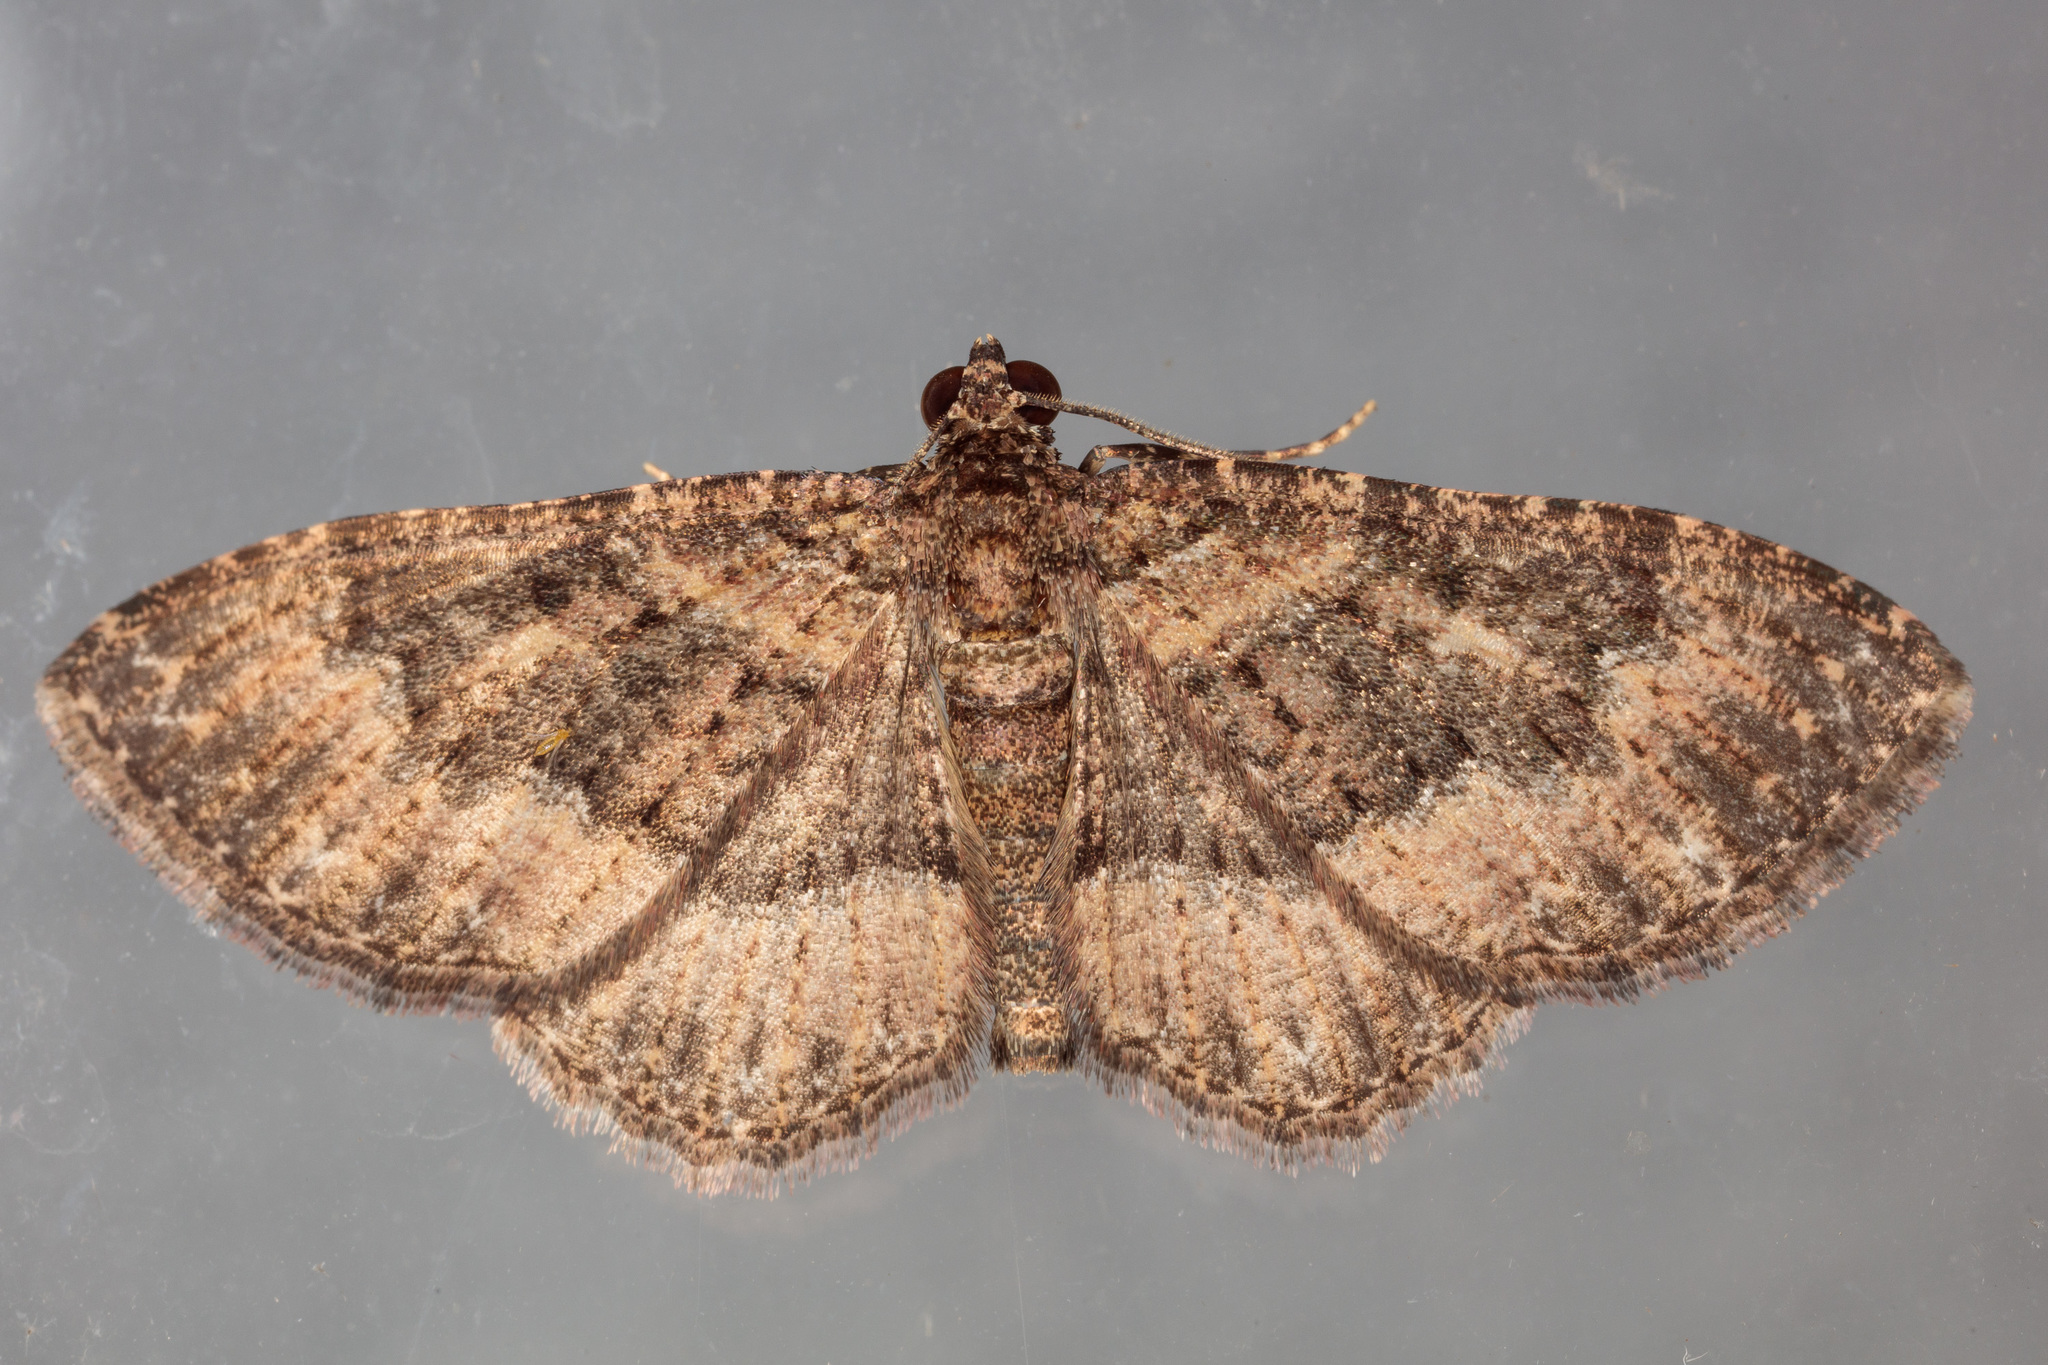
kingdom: Animalia
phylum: Arthropoda
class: Insecta
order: Lepidoptera
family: Geometridae
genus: Disclisioprocta
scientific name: Disclisioprocta stellata
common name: Somber carpet
